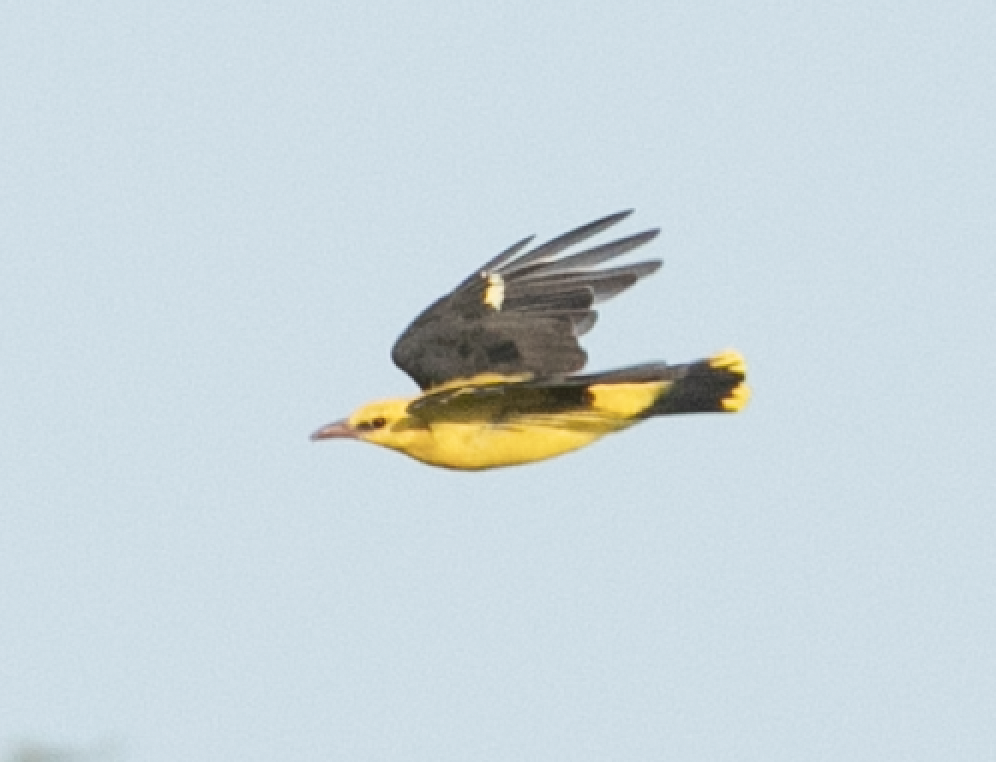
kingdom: Animalia
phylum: Chordata
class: Aves
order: Passeriformes
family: Oriolidae
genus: Oriolus
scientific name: Oriolus oriolus
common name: Eurasian golden oriole
